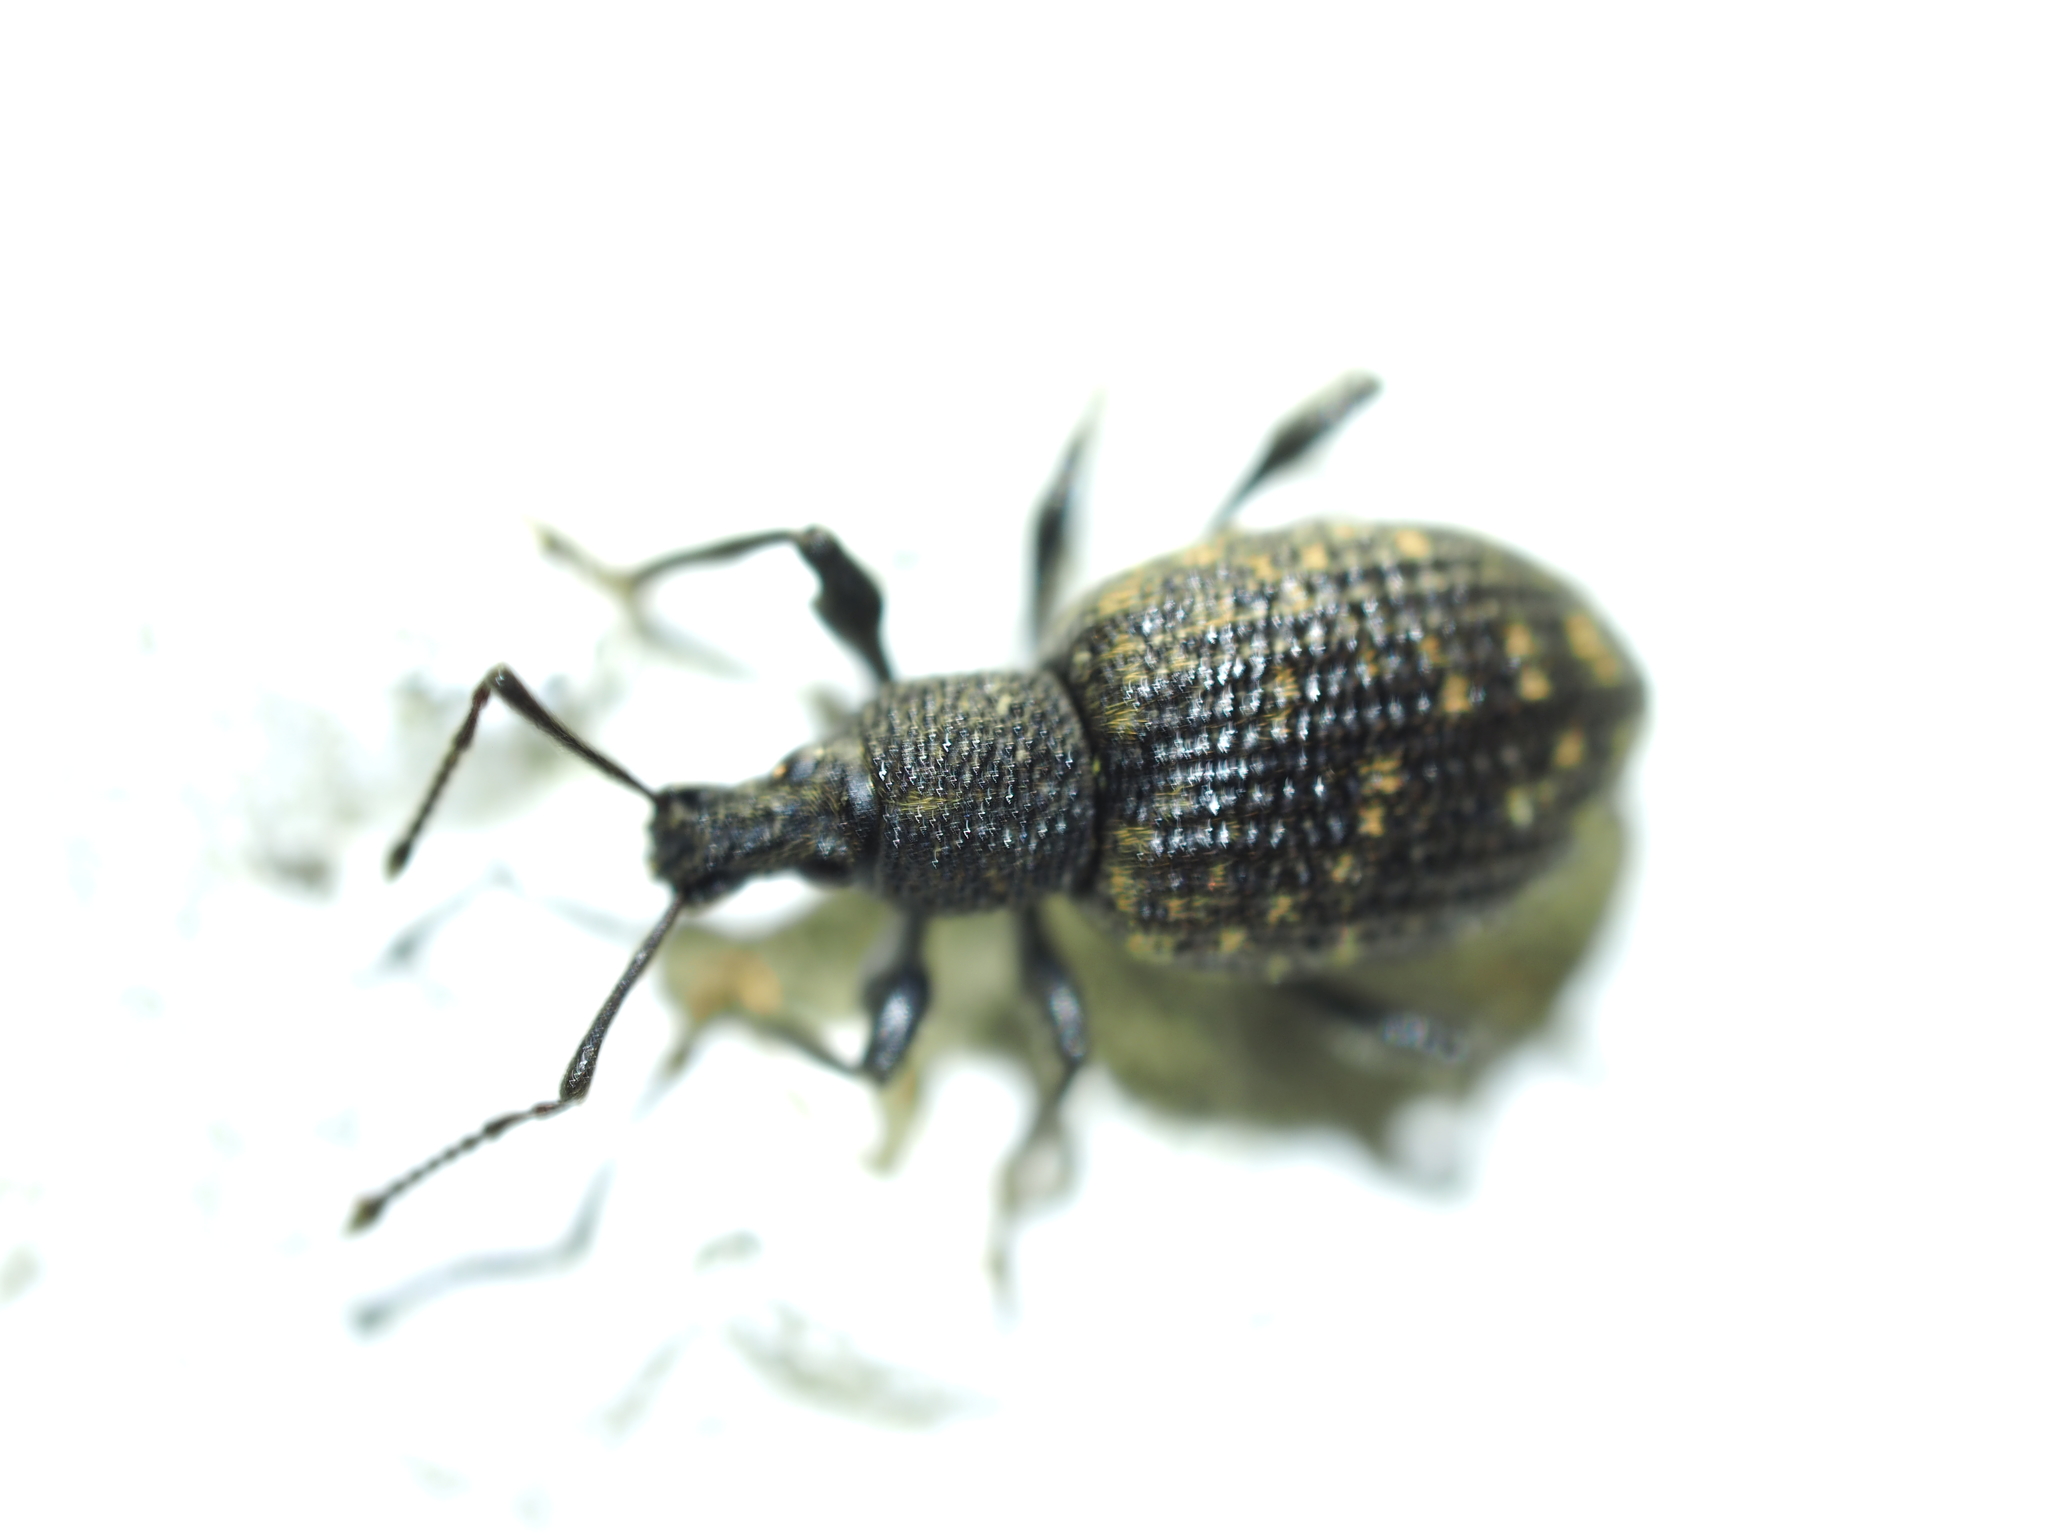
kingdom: Animalia
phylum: Arthropoda
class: Insecta
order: Coleoptera
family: Curculionidae
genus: Otiorhynchus
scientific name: Otiorhynchus sulcatus
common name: Black vine weevil
